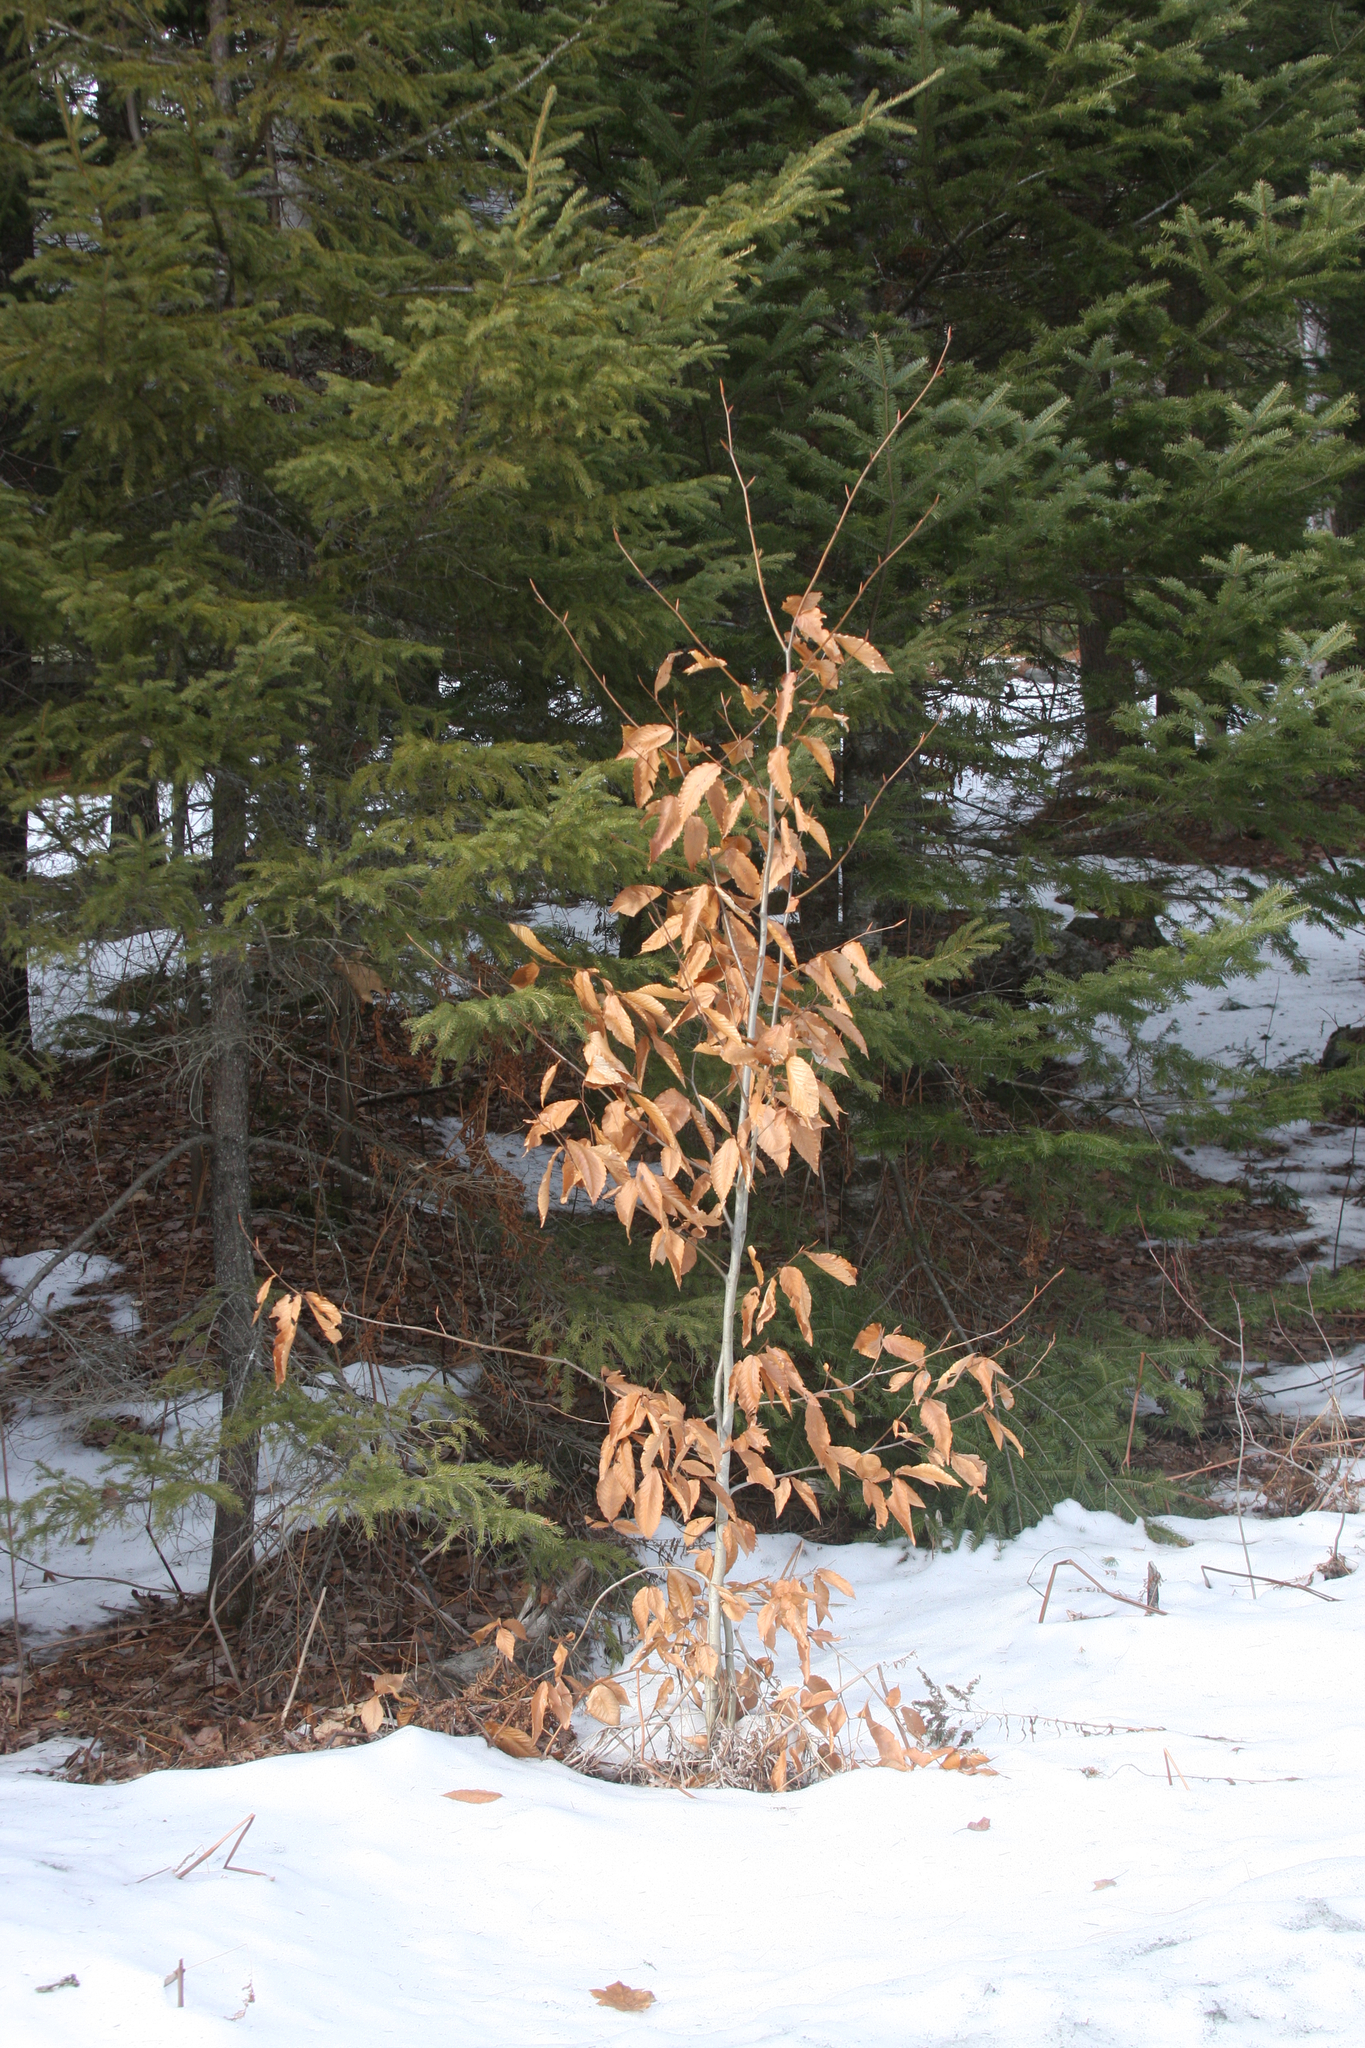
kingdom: Plantae
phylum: Tracheophyta
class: Magnoliopsida
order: Fagales
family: Fagaceae
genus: Fagus
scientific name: Fagus grandifolia
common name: American beech
